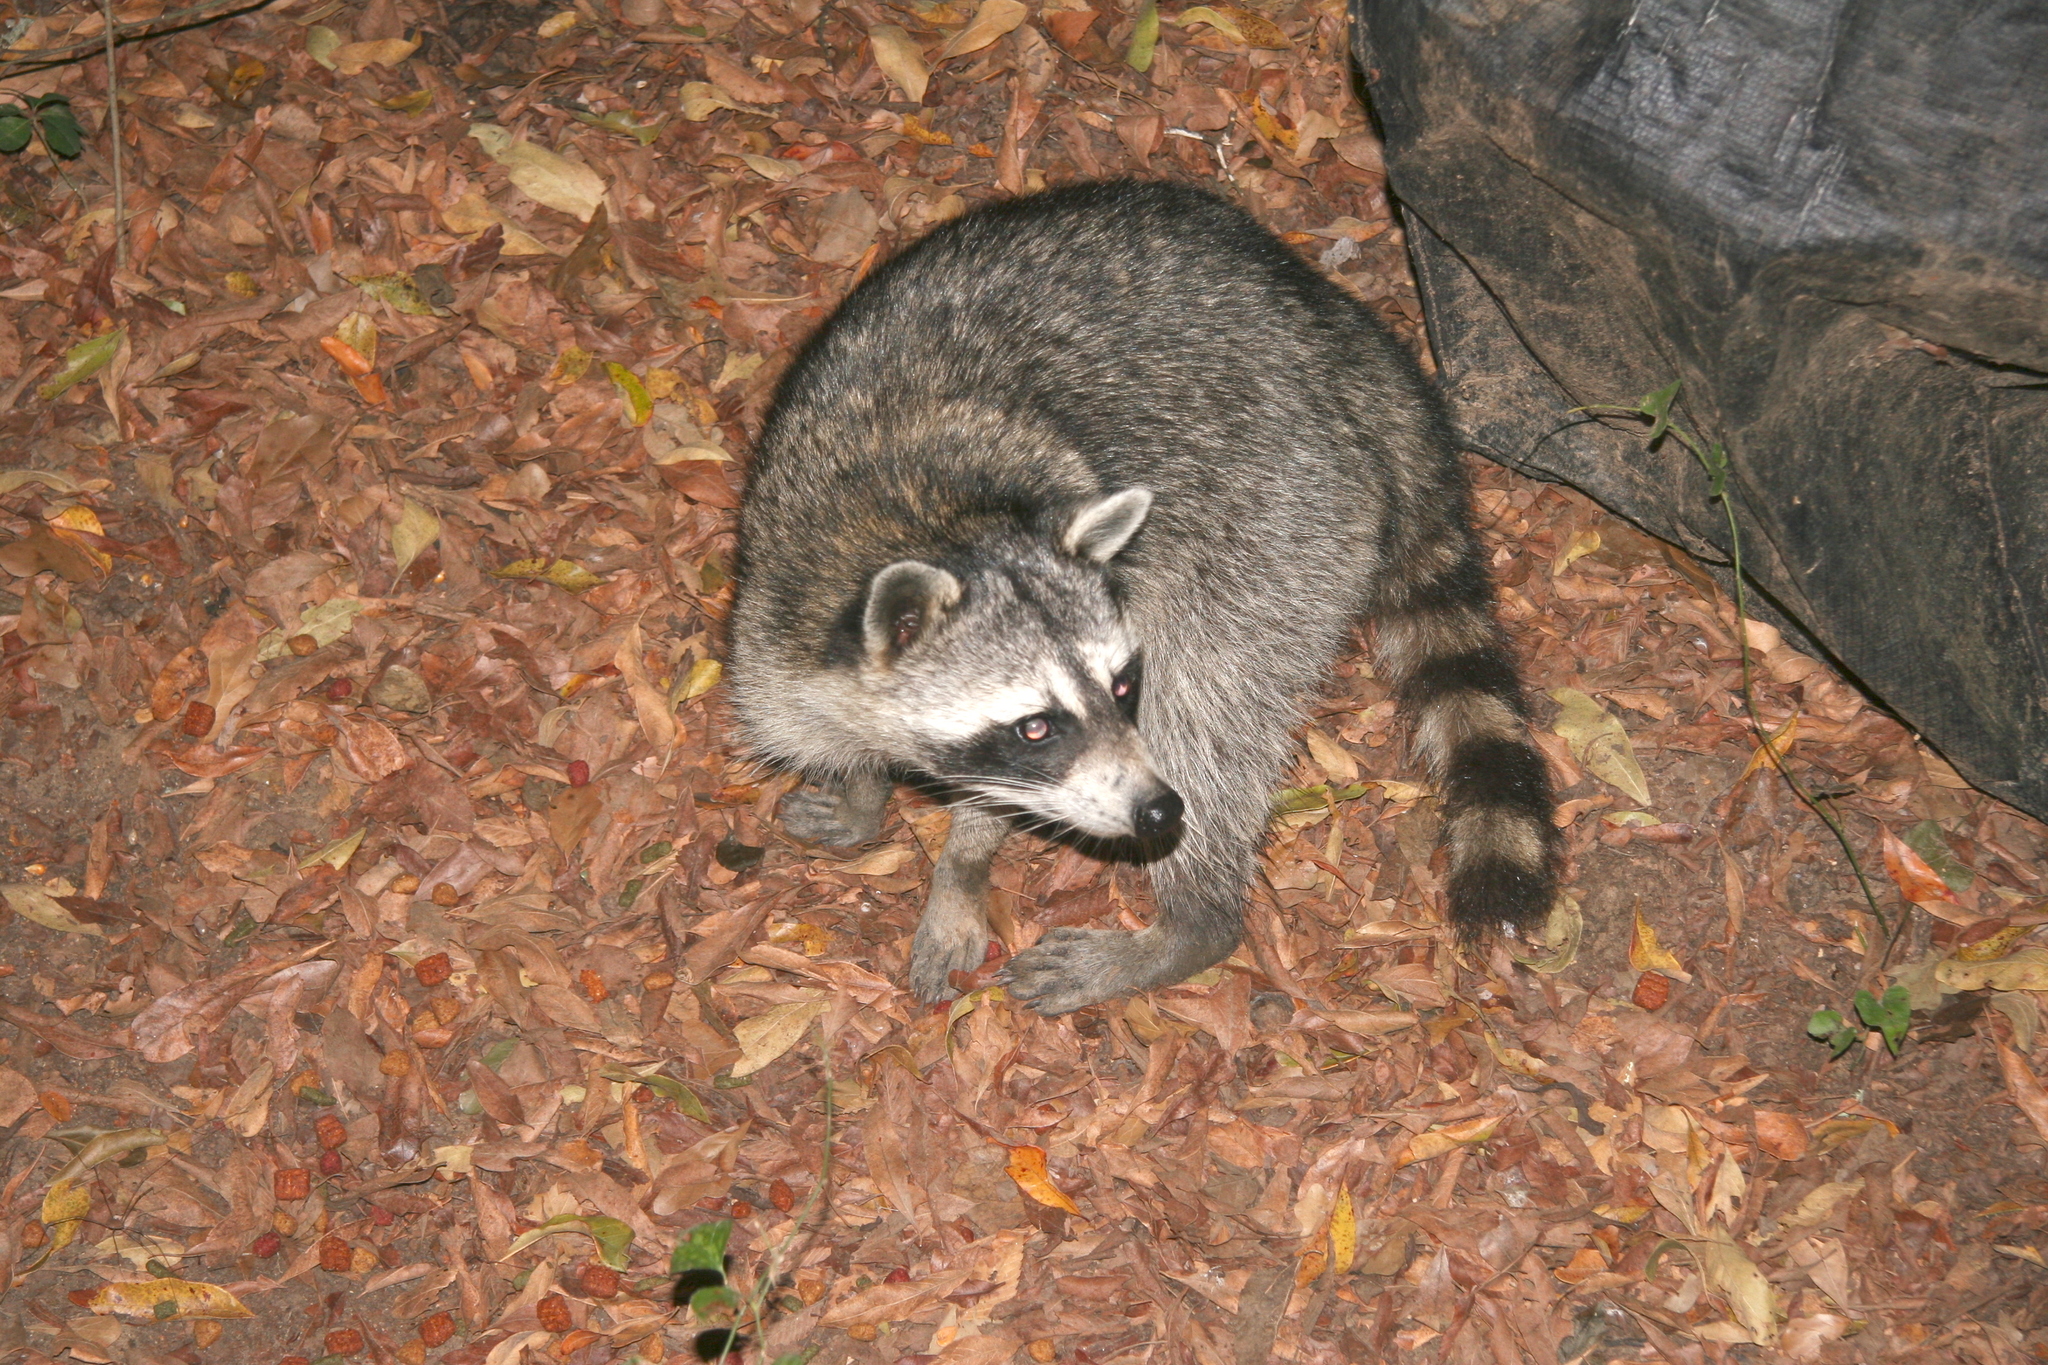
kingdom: Animalia
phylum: Chordata
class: Mammalia
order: Carnivora
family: Procyonidae
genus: Procyon
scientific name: Procyon lotor
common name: Raccoon
